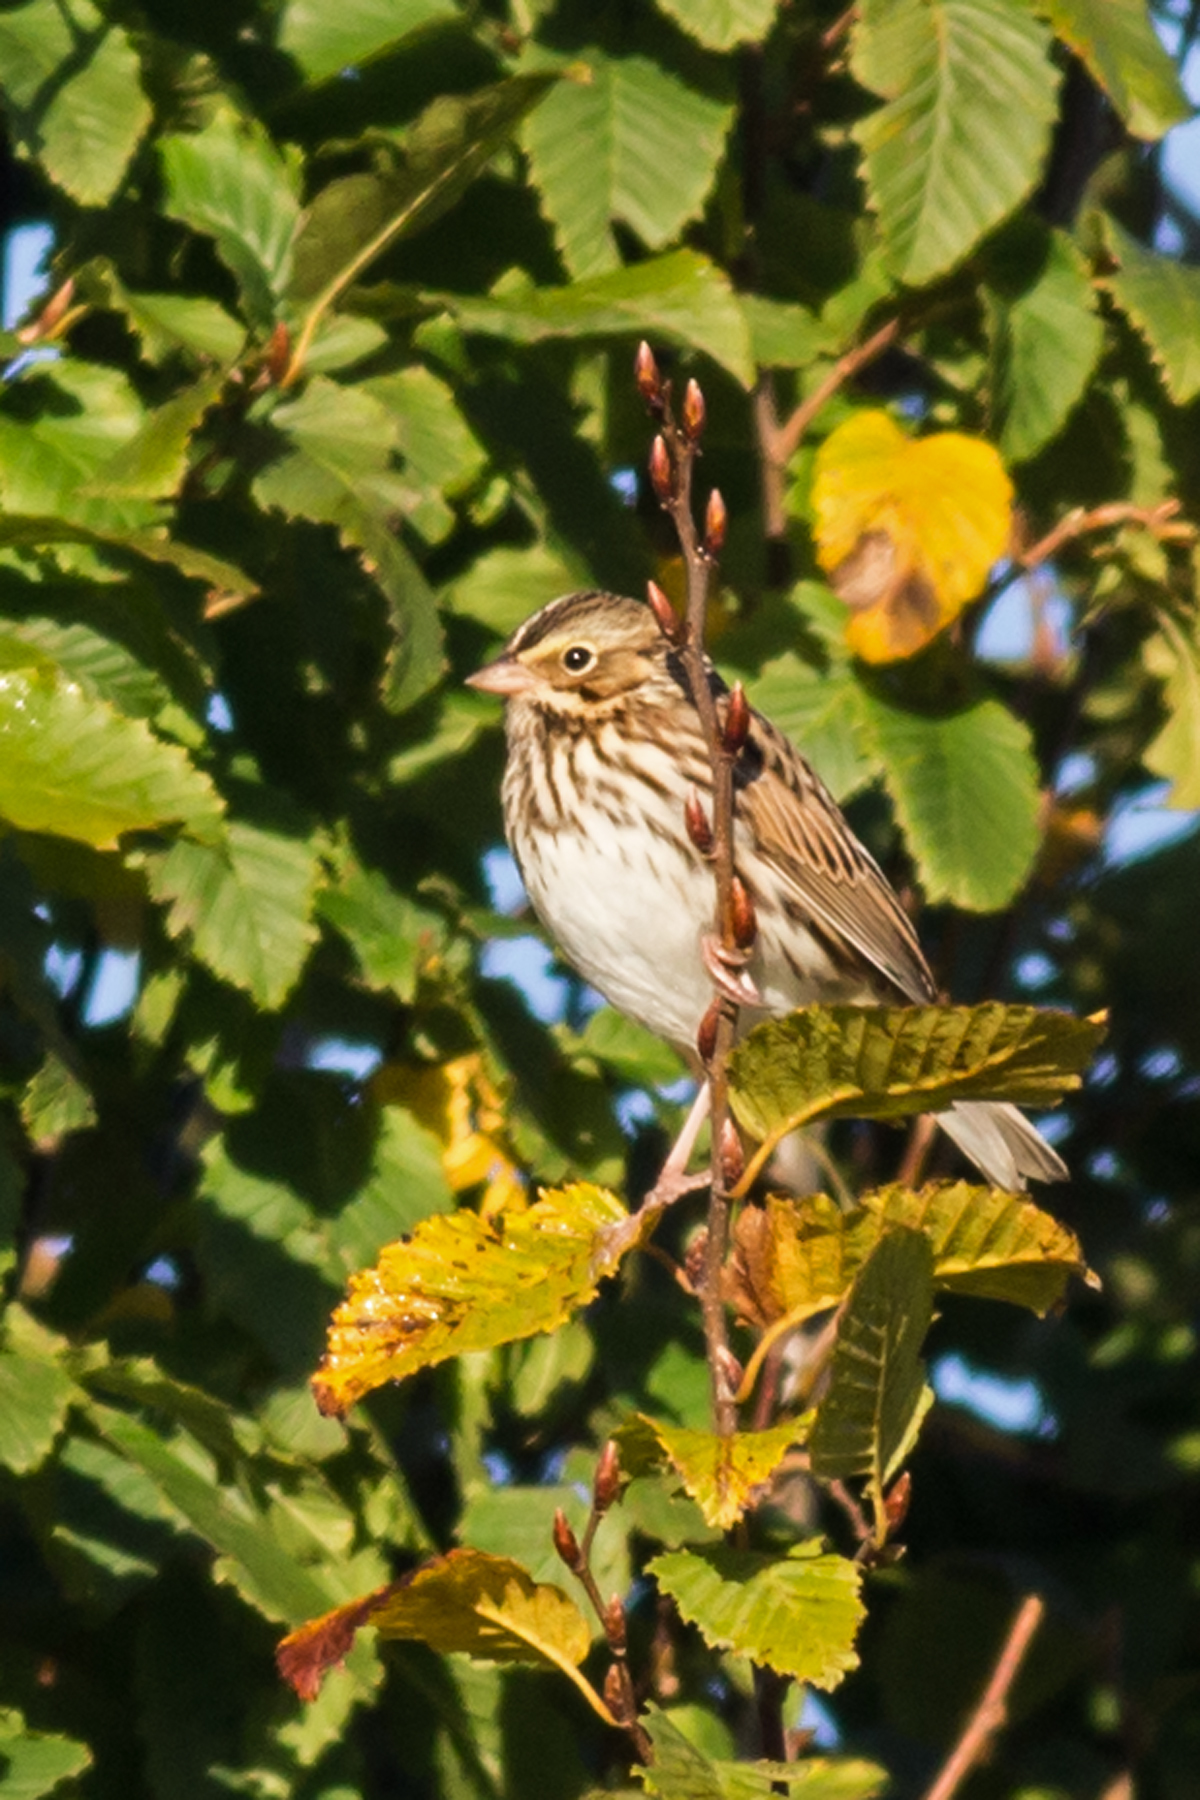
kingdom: Animalia
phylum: Chordata
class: Aves
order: Passeriformes
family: Passerellidae
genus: Passerculus
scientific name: Passerculus sandwichensis
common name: Savannah sparrow
